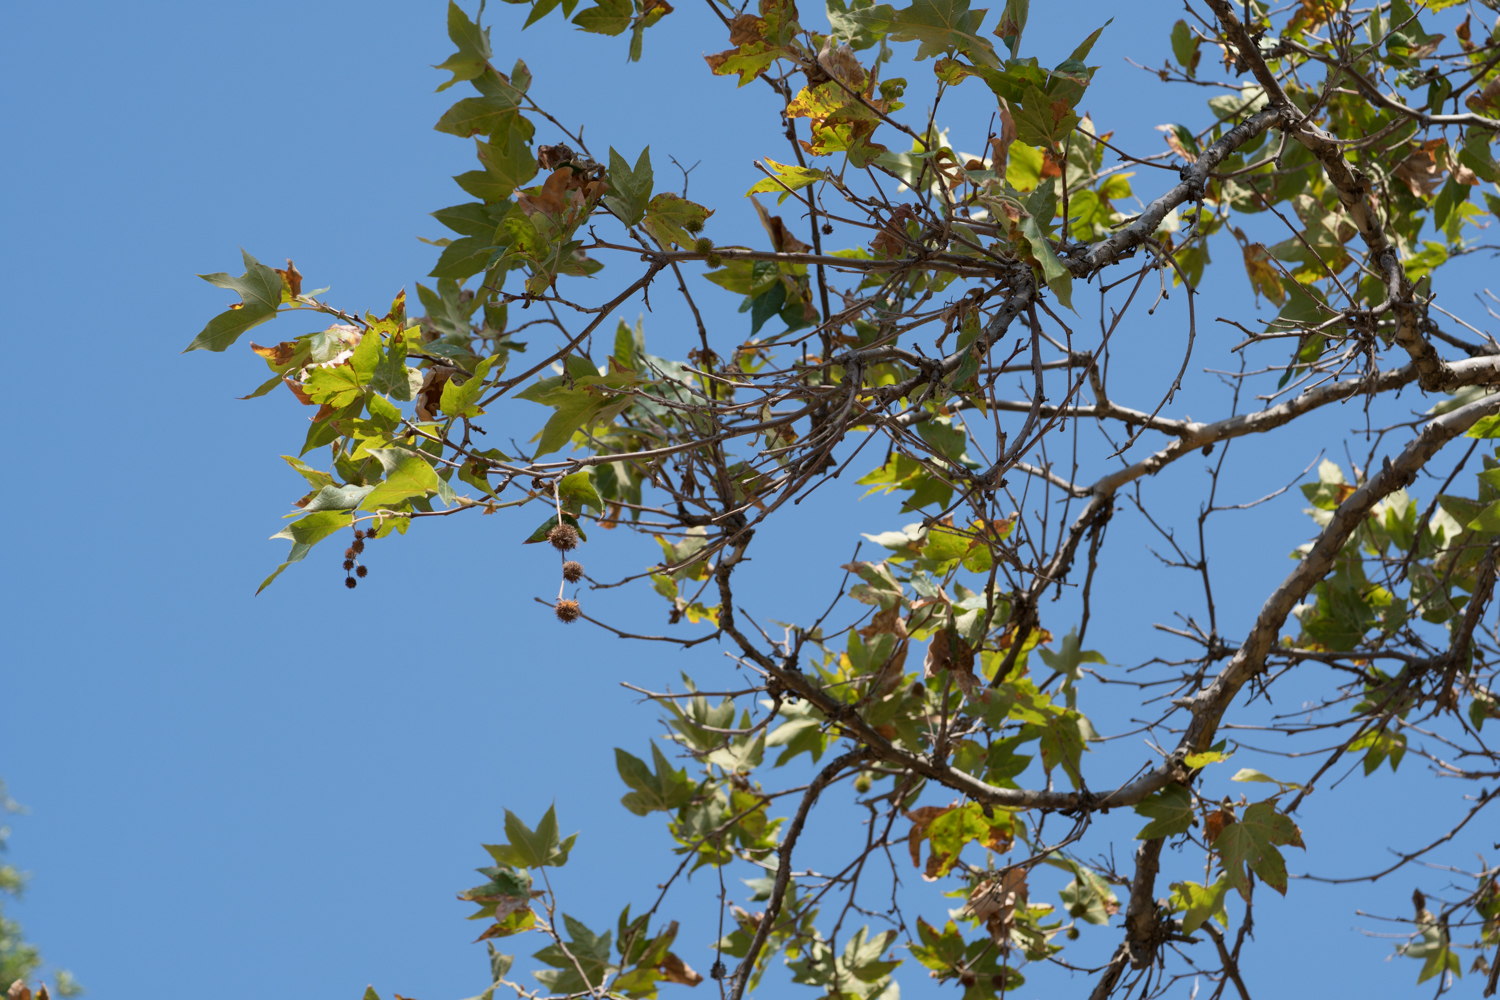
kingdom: Plantae
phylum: Tracheophyta
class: Magnoliopsida
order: Proteales
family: Platanaceae
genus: Platanus
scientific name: Platanus racemosa
